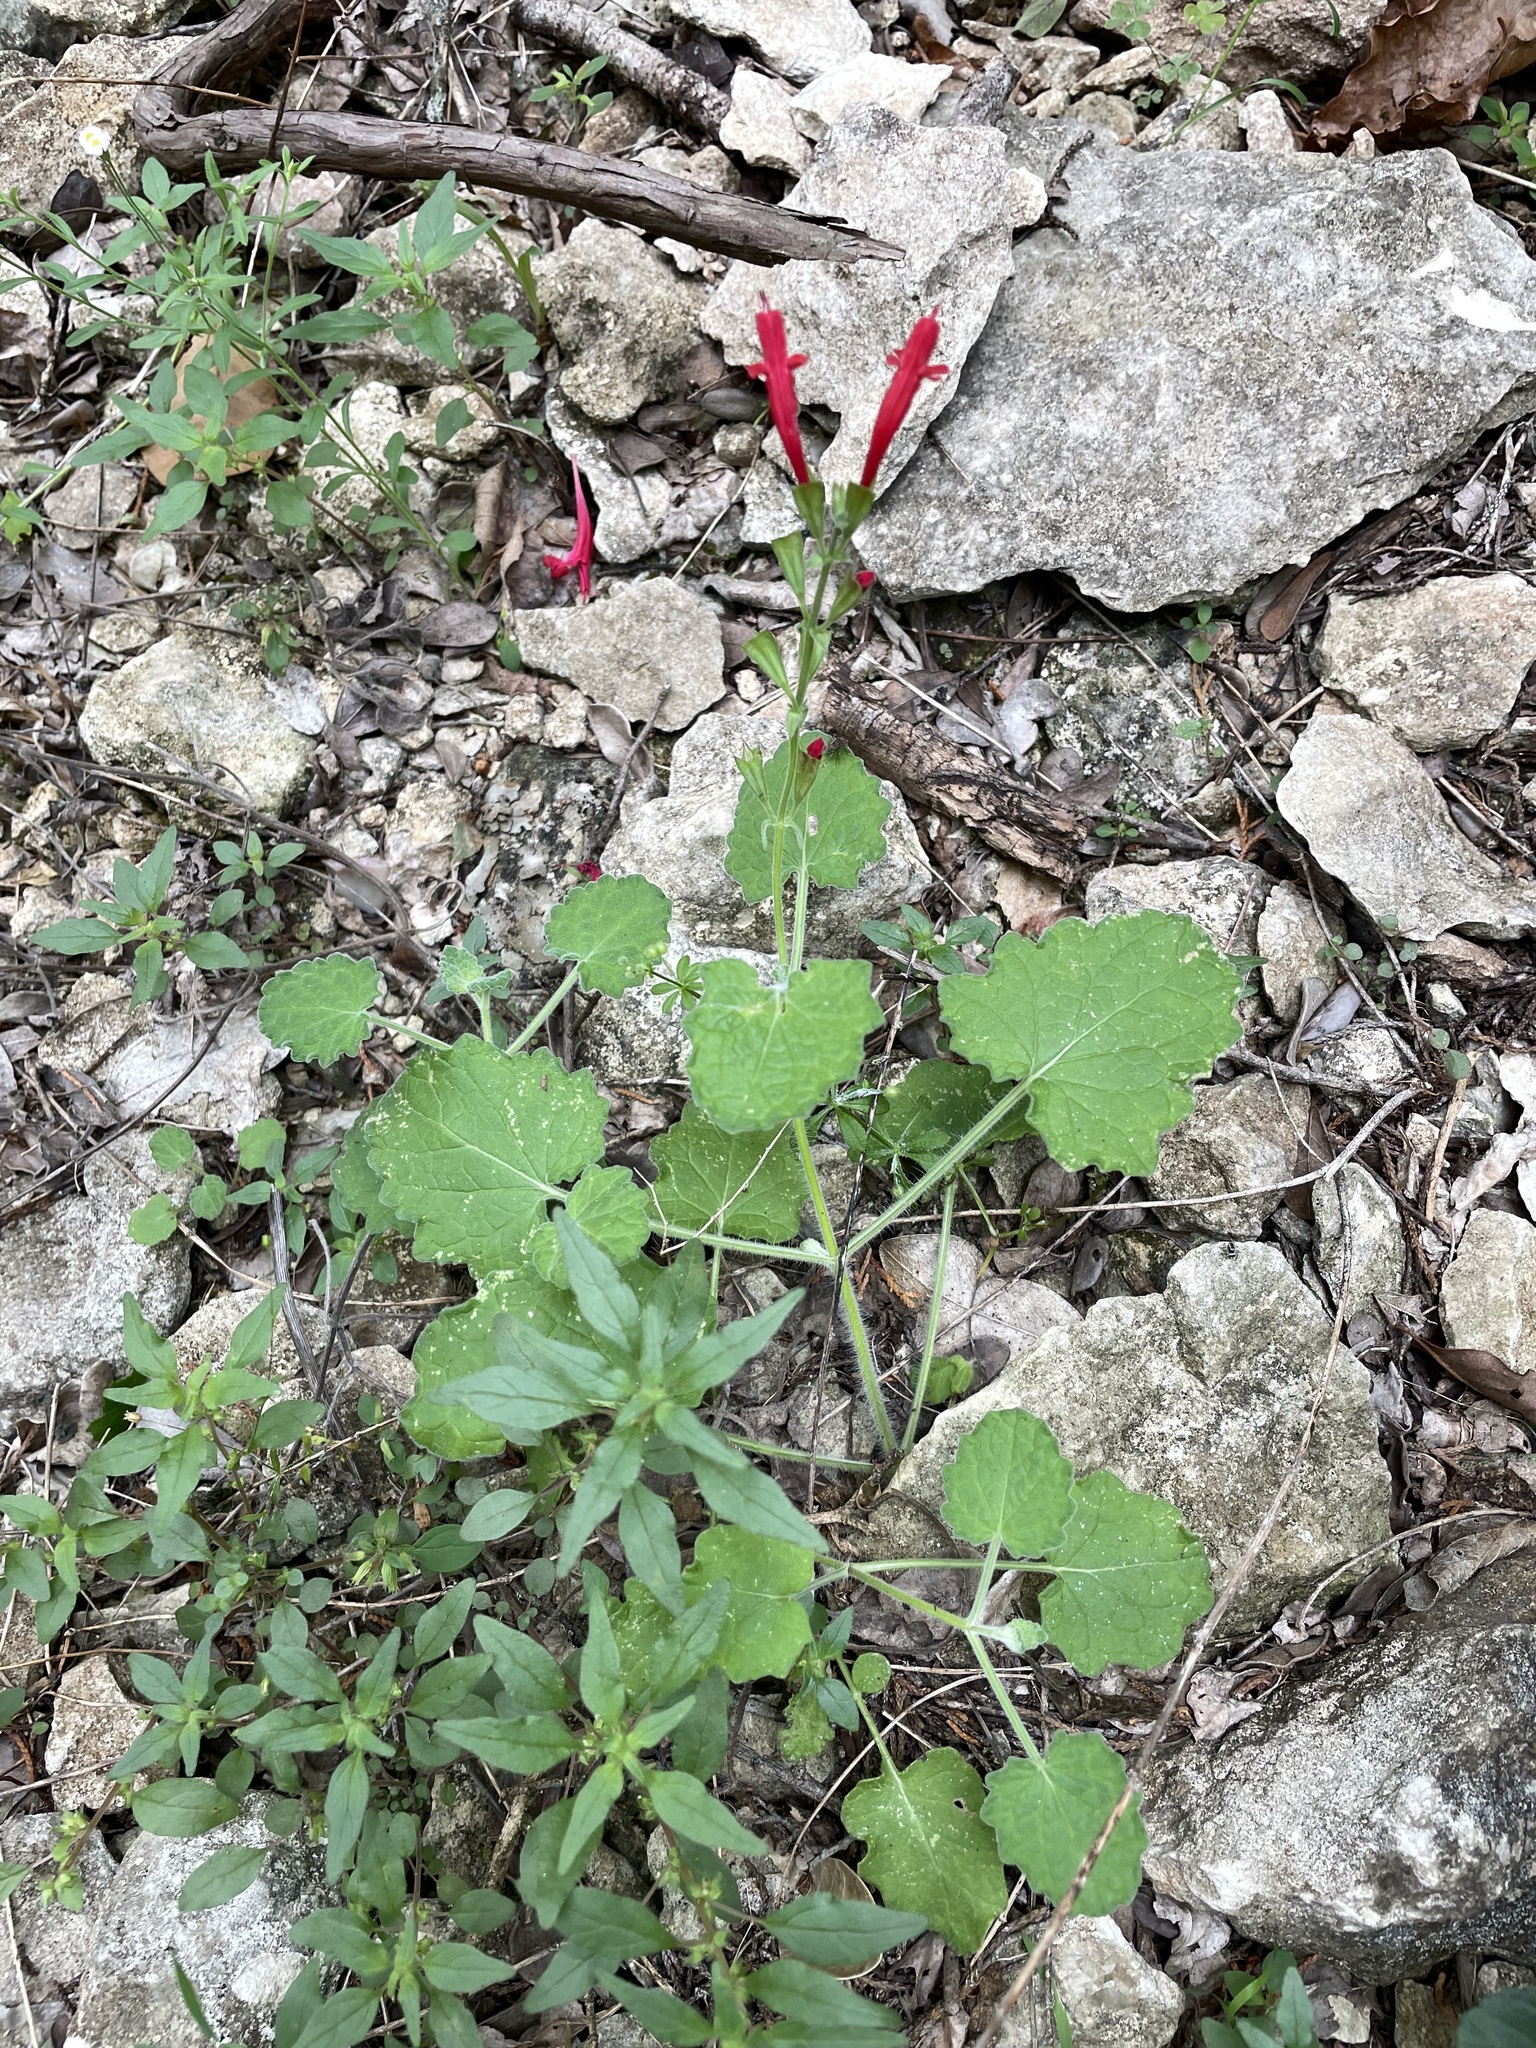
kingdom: Plantae
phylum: Tracheophyta
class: Magnoliopsida
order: Lamiales
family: Lamiaceae
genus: Salvia
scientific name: Salvia roemeriana
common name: Cedar sage
